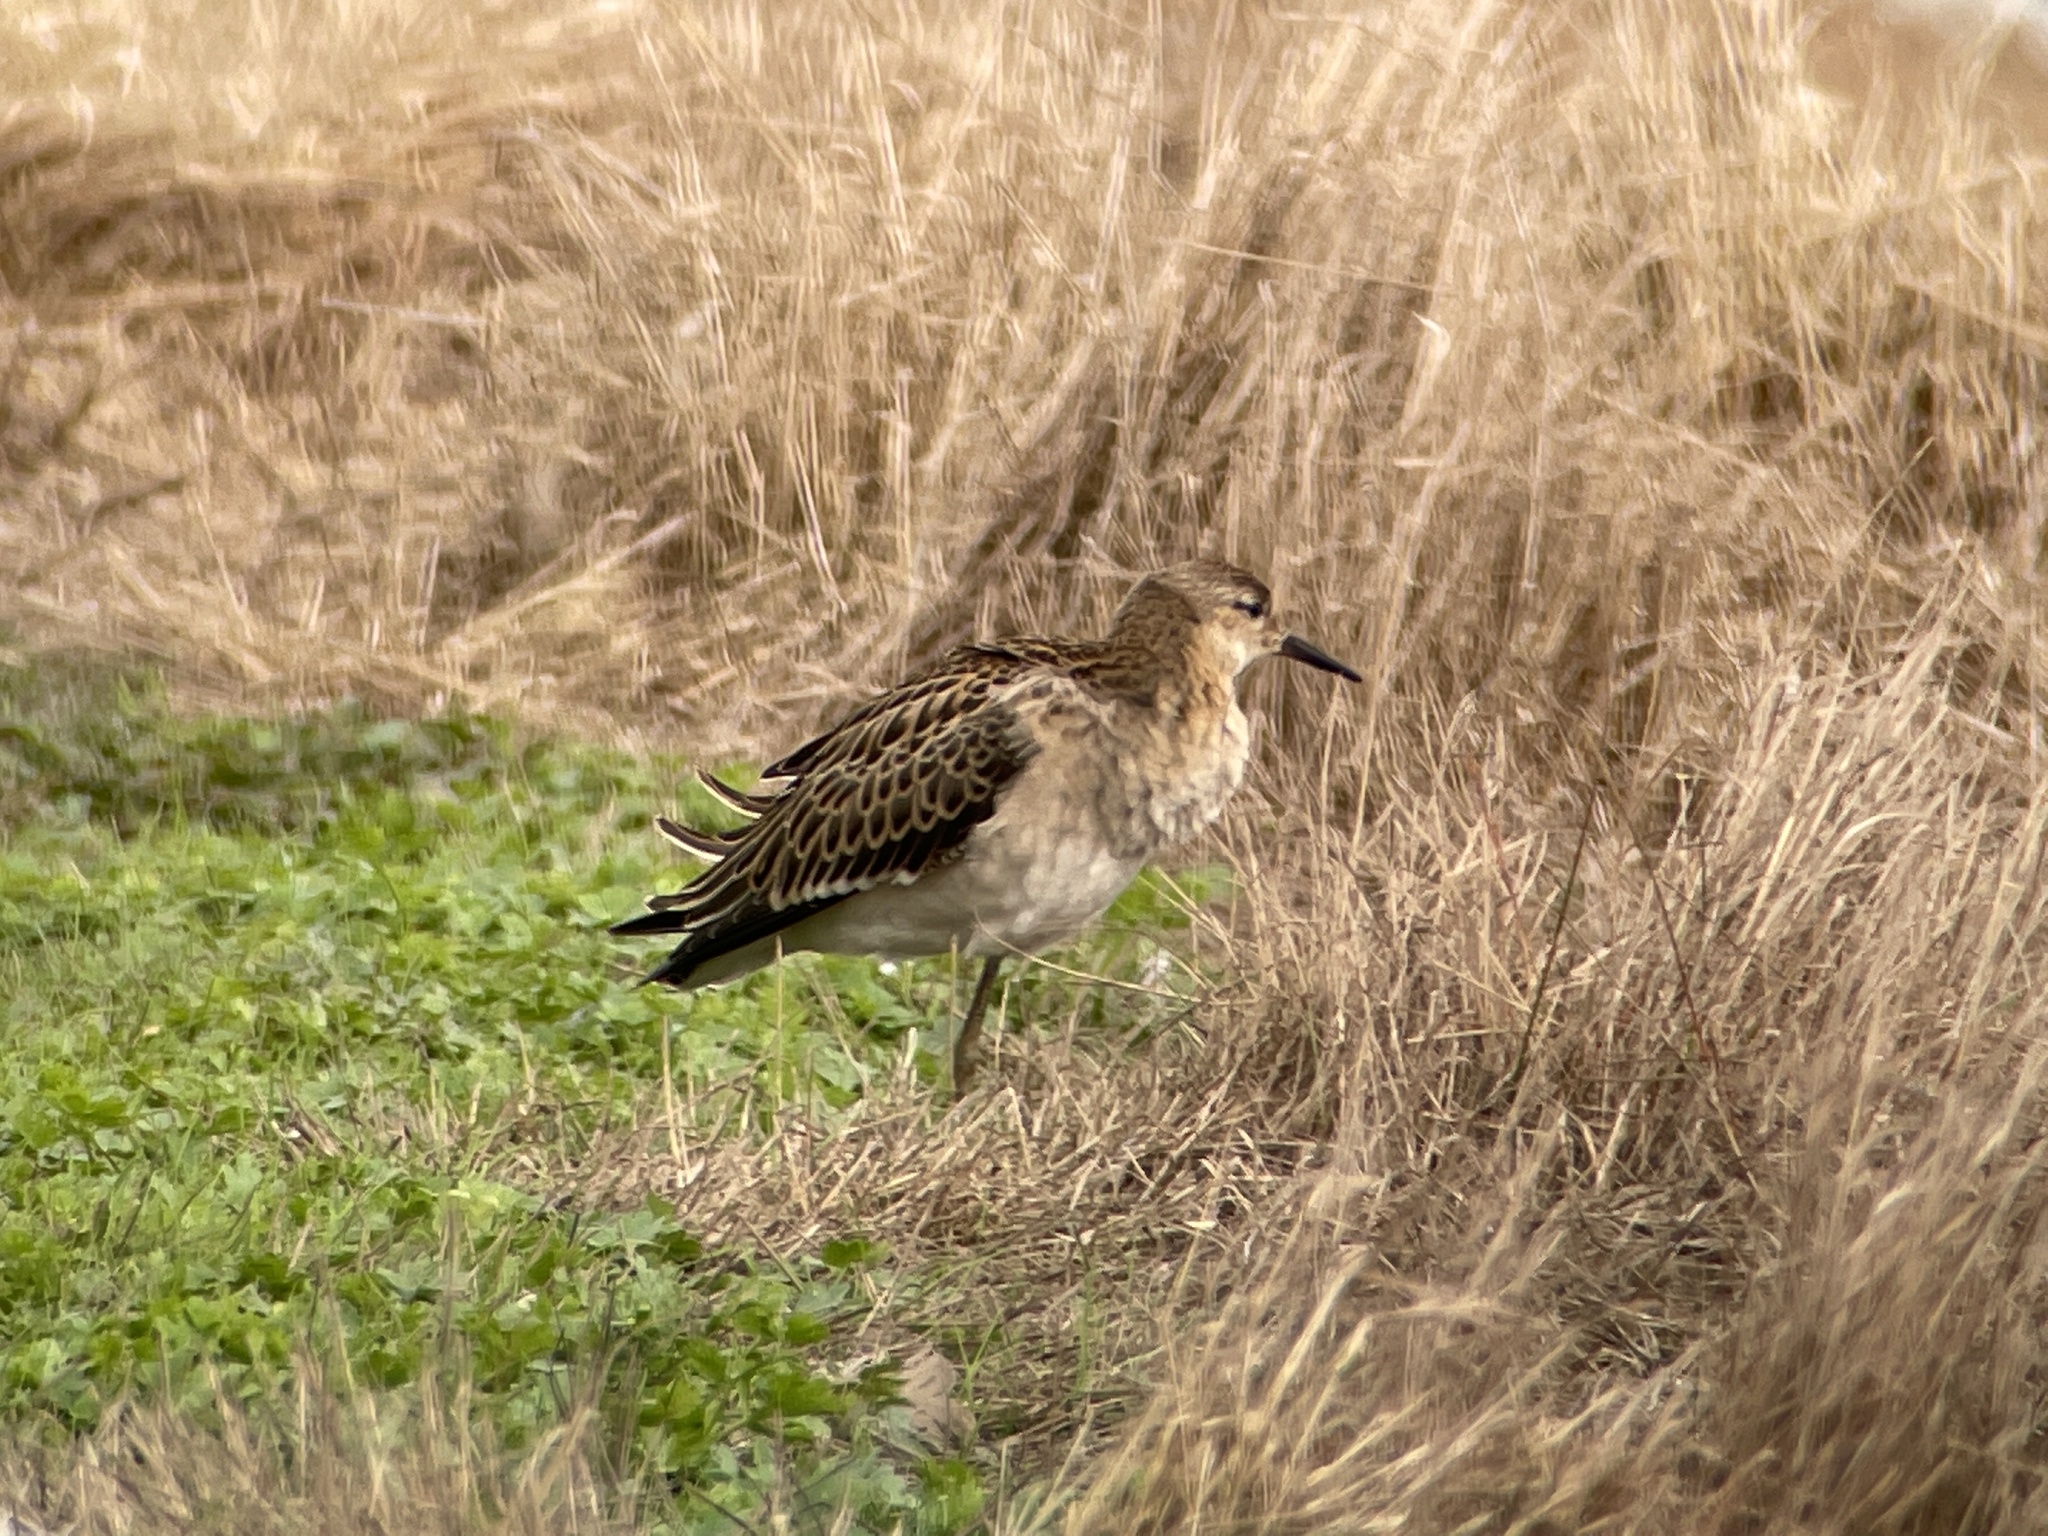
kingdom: Animalia
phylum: Chordata
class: Aves
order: Charadriiformes
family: Scolopacidae
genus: Calidris
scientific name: Calidris pugnax
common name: Ruff
